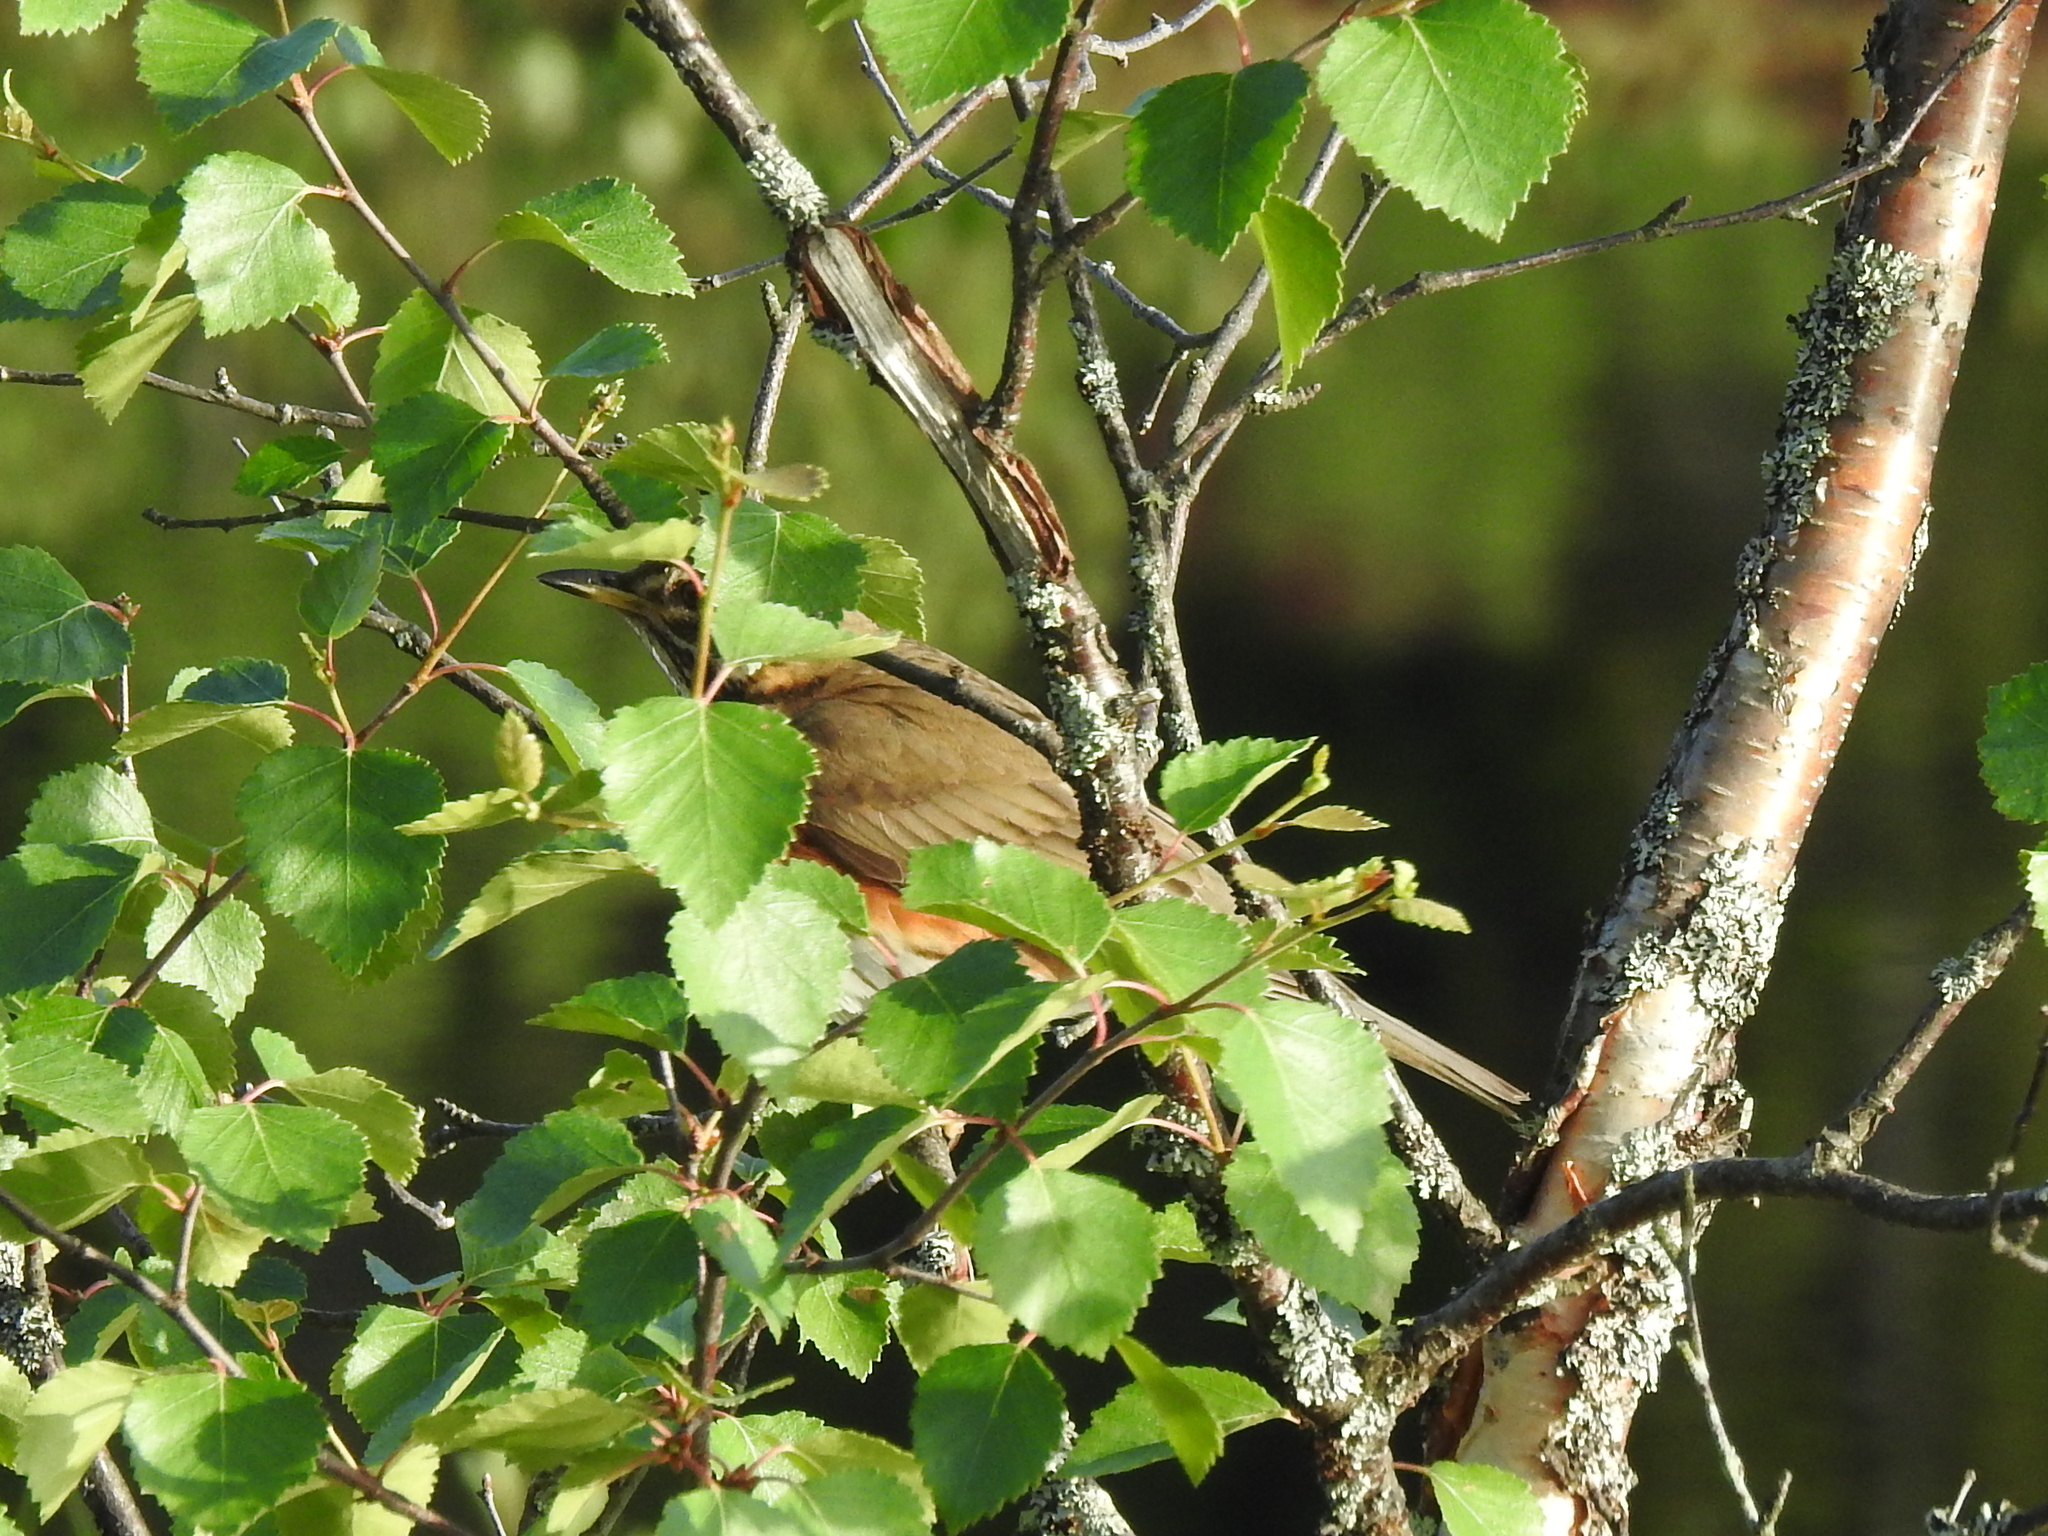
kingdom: Animalia
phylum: Chordata
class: Aves
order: Passeriformes
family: Turdidae
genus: Turdus
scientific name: Turdus iliacus
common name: Redwing
